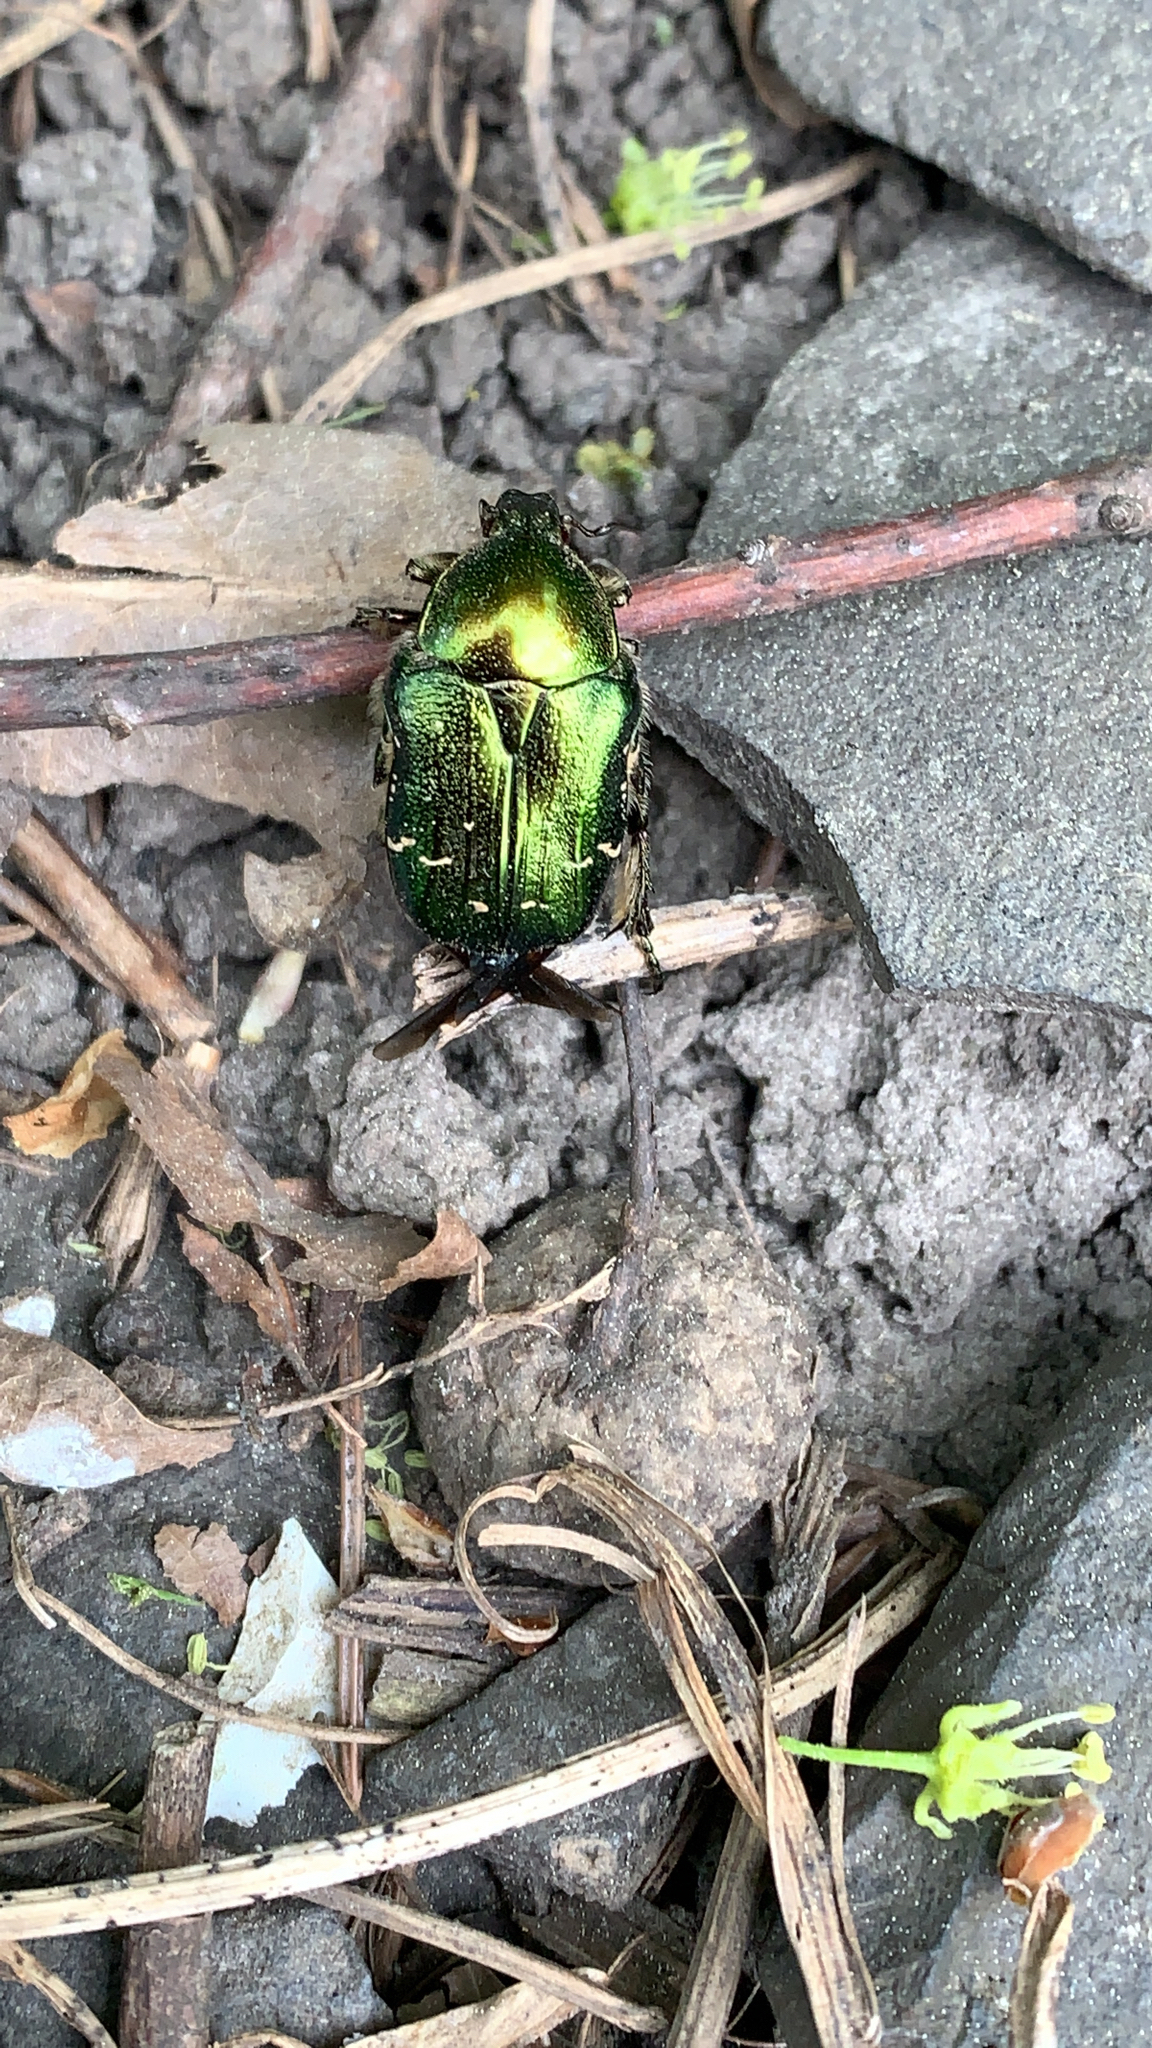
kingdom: Animalia
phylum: Arthropoda
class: Insecta
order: Coleoptera
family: Scarabaeidae
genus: Cetonia
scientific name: Cetonia aurata
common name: Rose chafer
